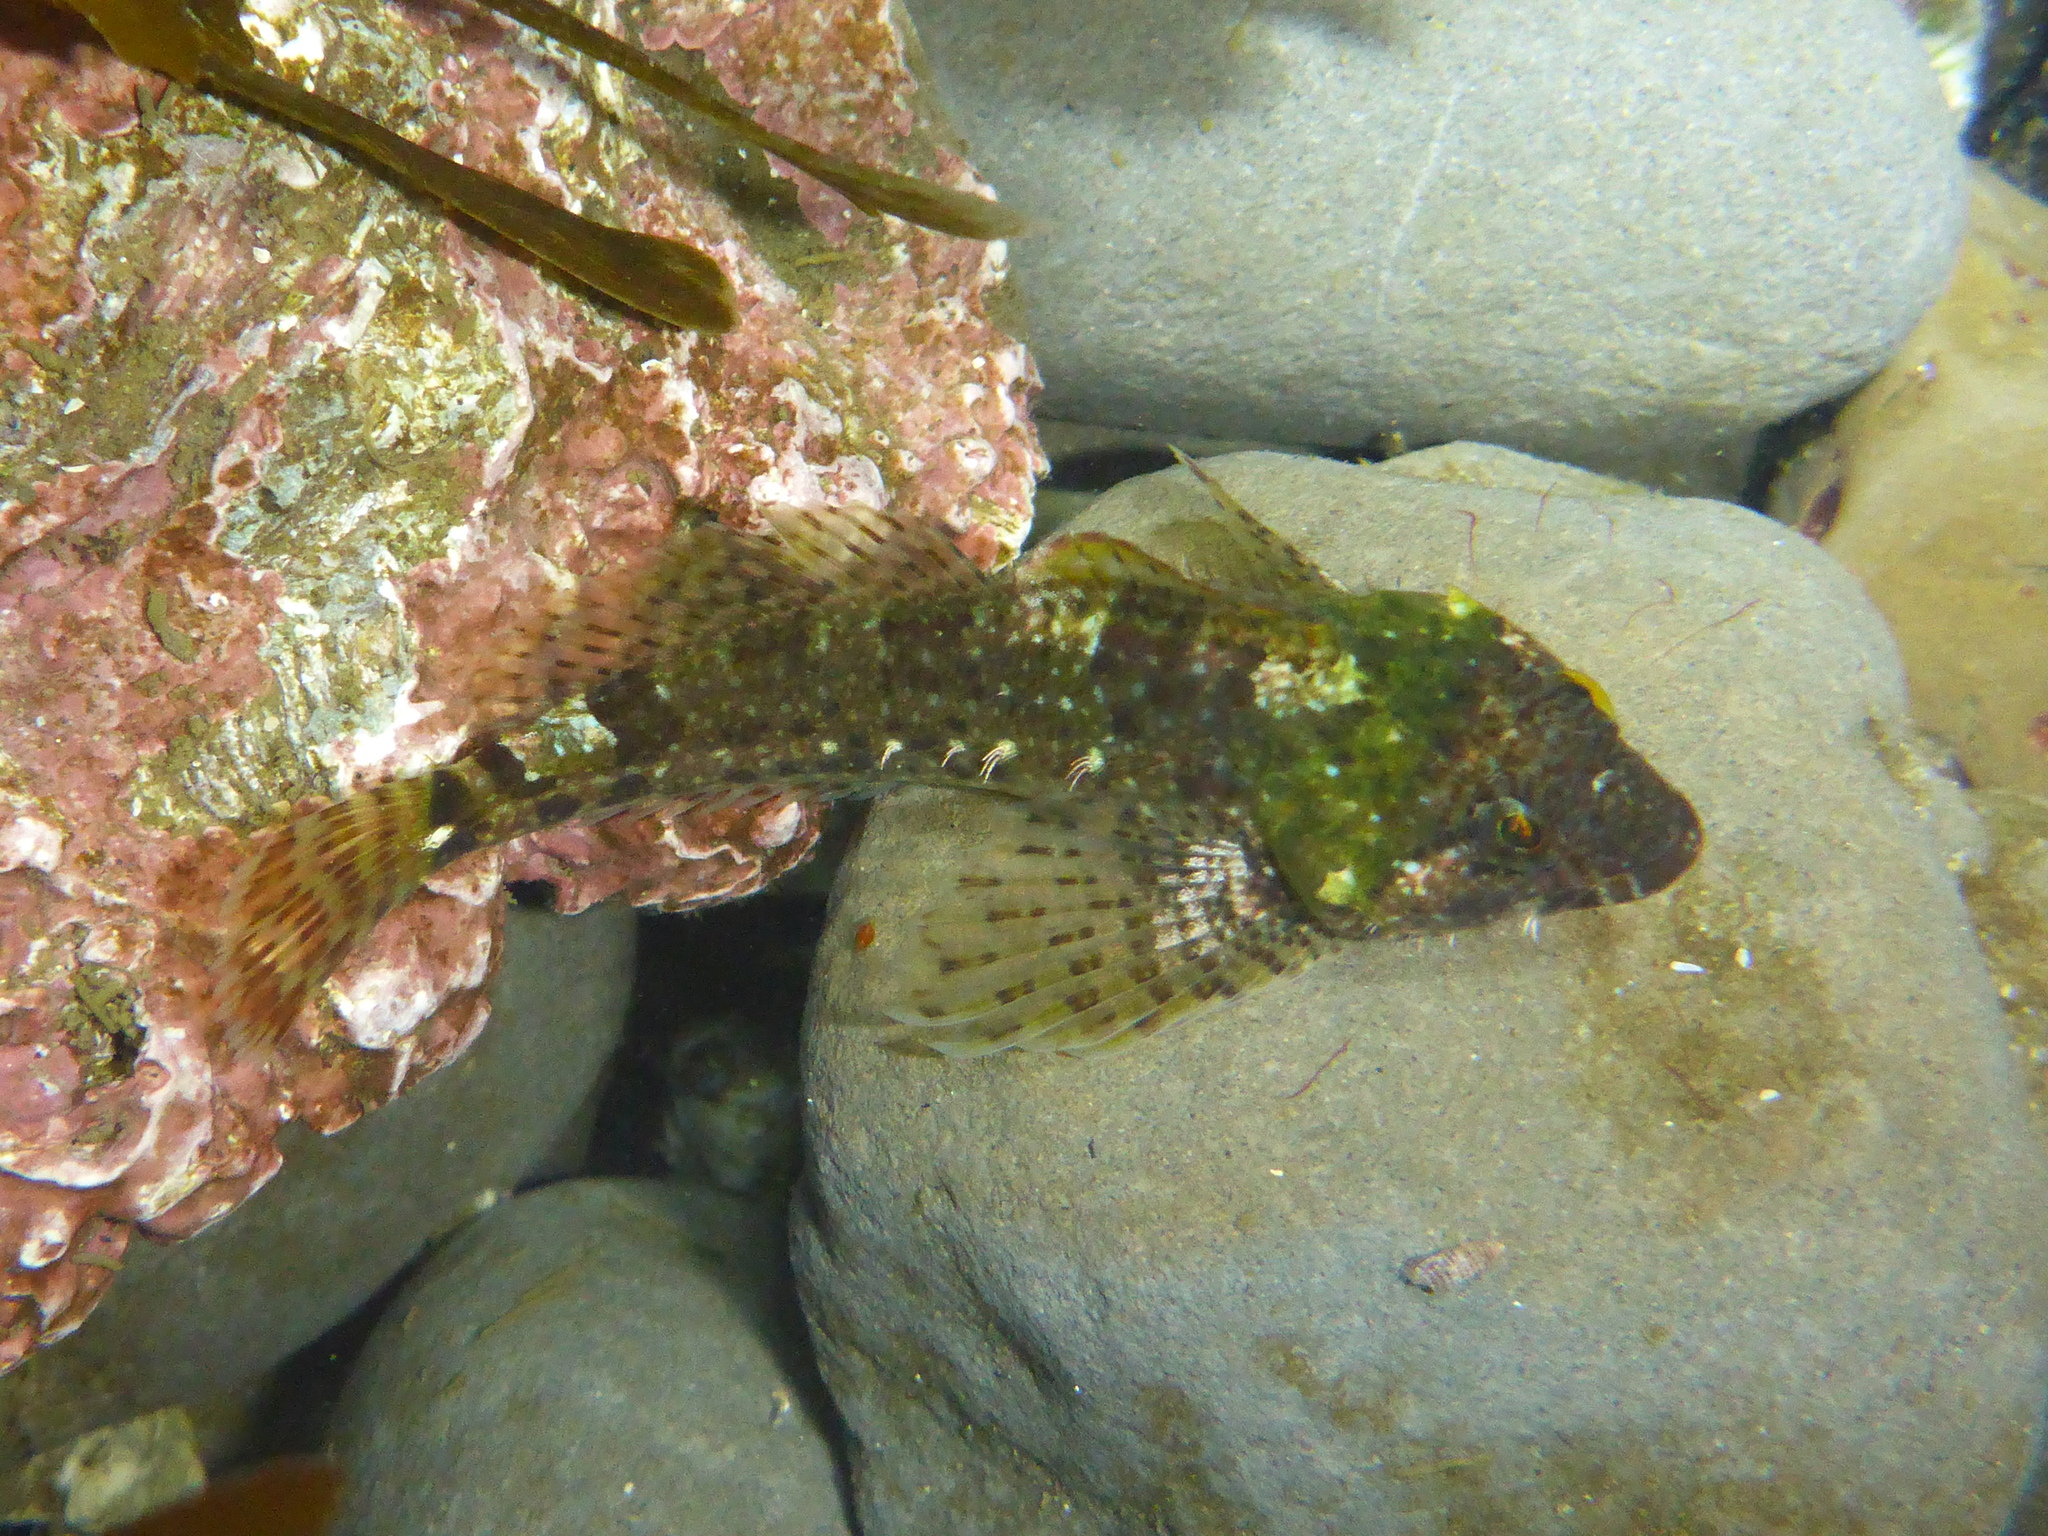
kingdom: Animalia
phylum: Chordata
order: Scorpaeniformes
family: Cottidae
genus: Clinocottus
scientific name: Clinocottus analis
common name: Woolly sculpin
